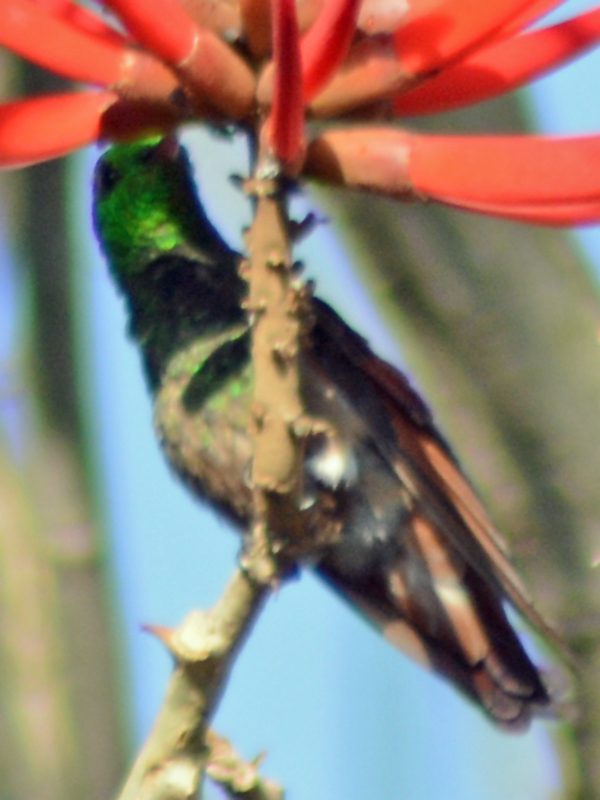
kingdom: Animalia
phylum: Chordata
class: Aves
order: Apodiformes
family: Trochilidae
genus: Saucerottia
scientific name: Saucerottia beryllina
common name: Berylline hummingbird
